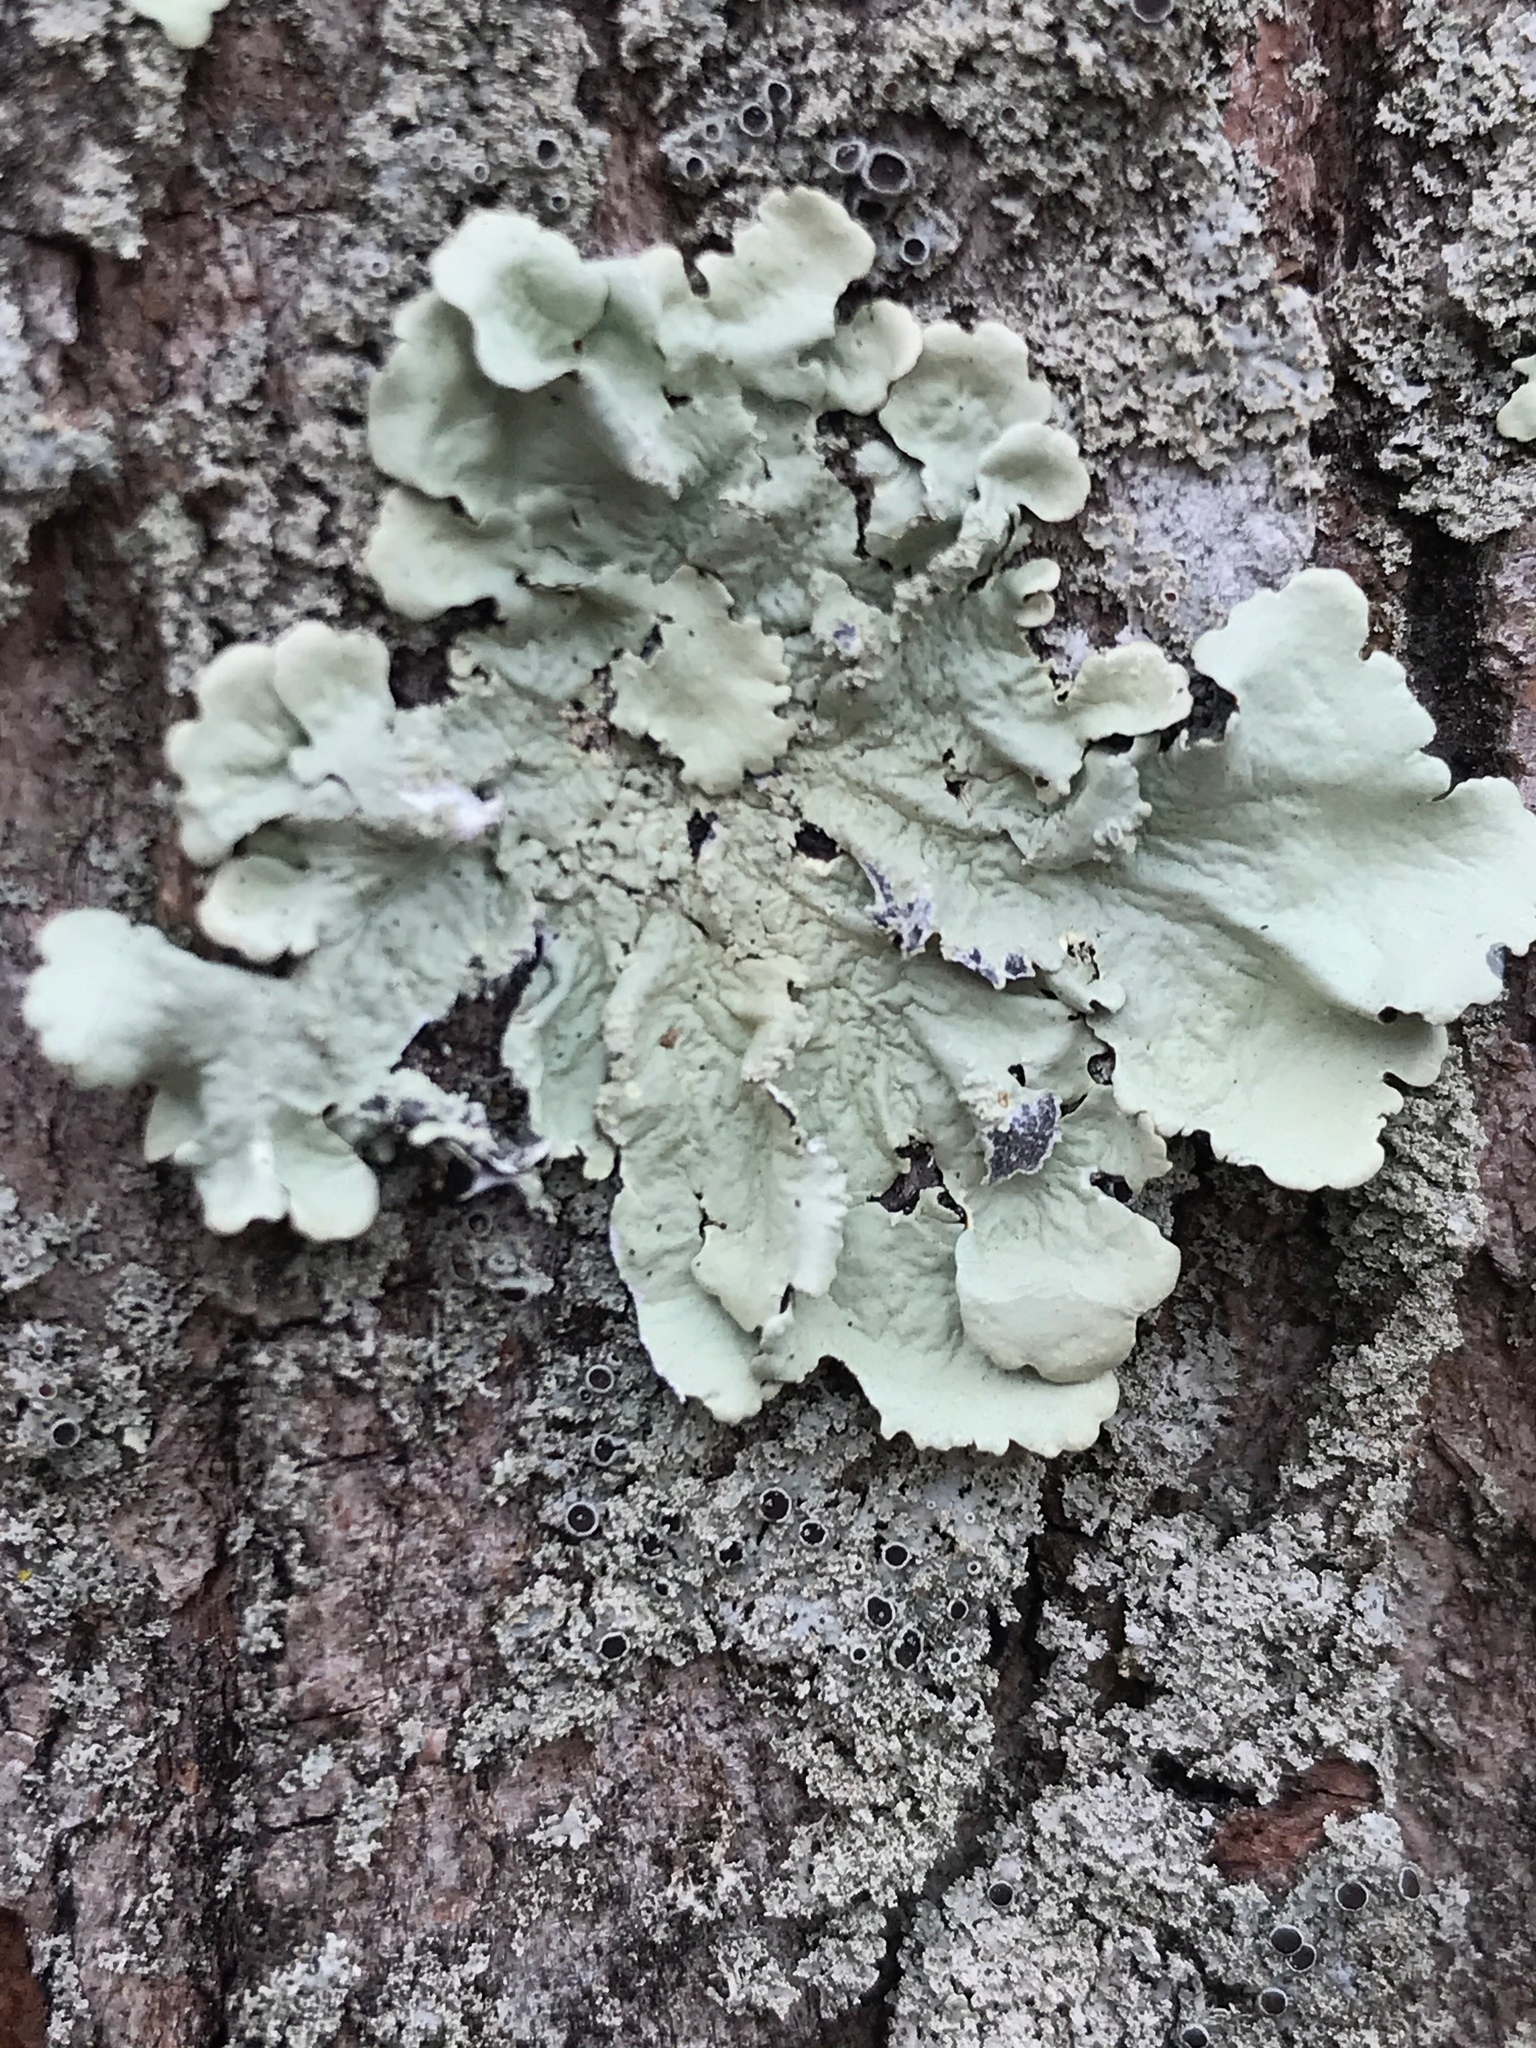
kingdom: Fungi
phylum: Ascomycota
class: Lecanoromycetes
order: Lecanorales
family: Parmeliaceae
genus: Flavoparmelia
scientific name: Flavoparmelia caperata
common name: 40-mile per hour lichen
